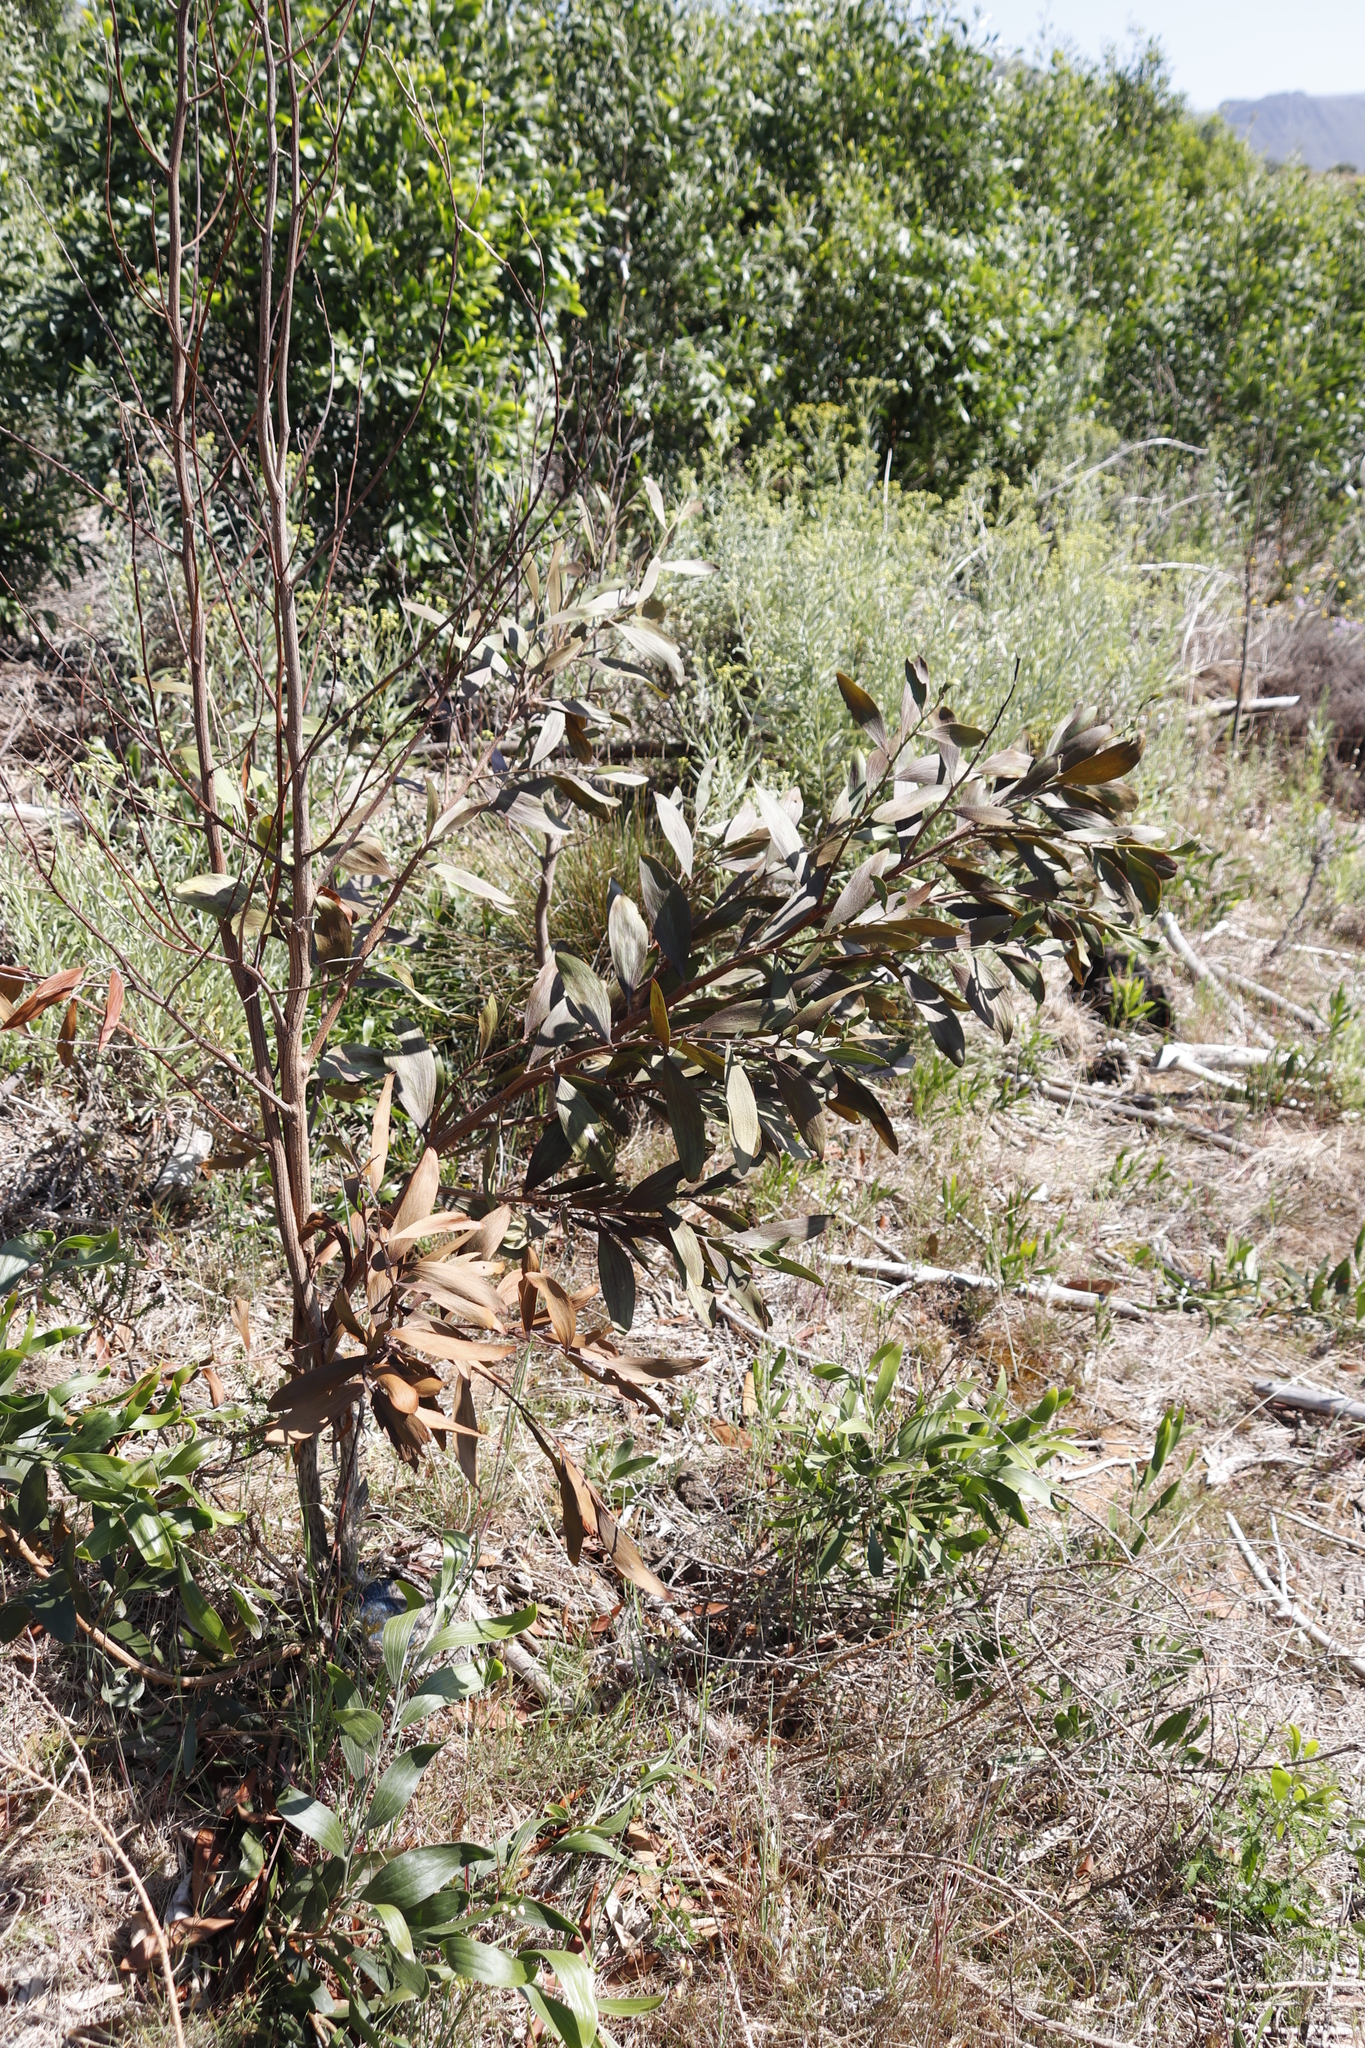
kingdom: Plantae
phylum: Tracheophyta
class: Magnoliopsida
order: Fabales
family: Fabaceae
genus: Acacia
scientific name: Acacia melanoxylon
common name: Blackwood
